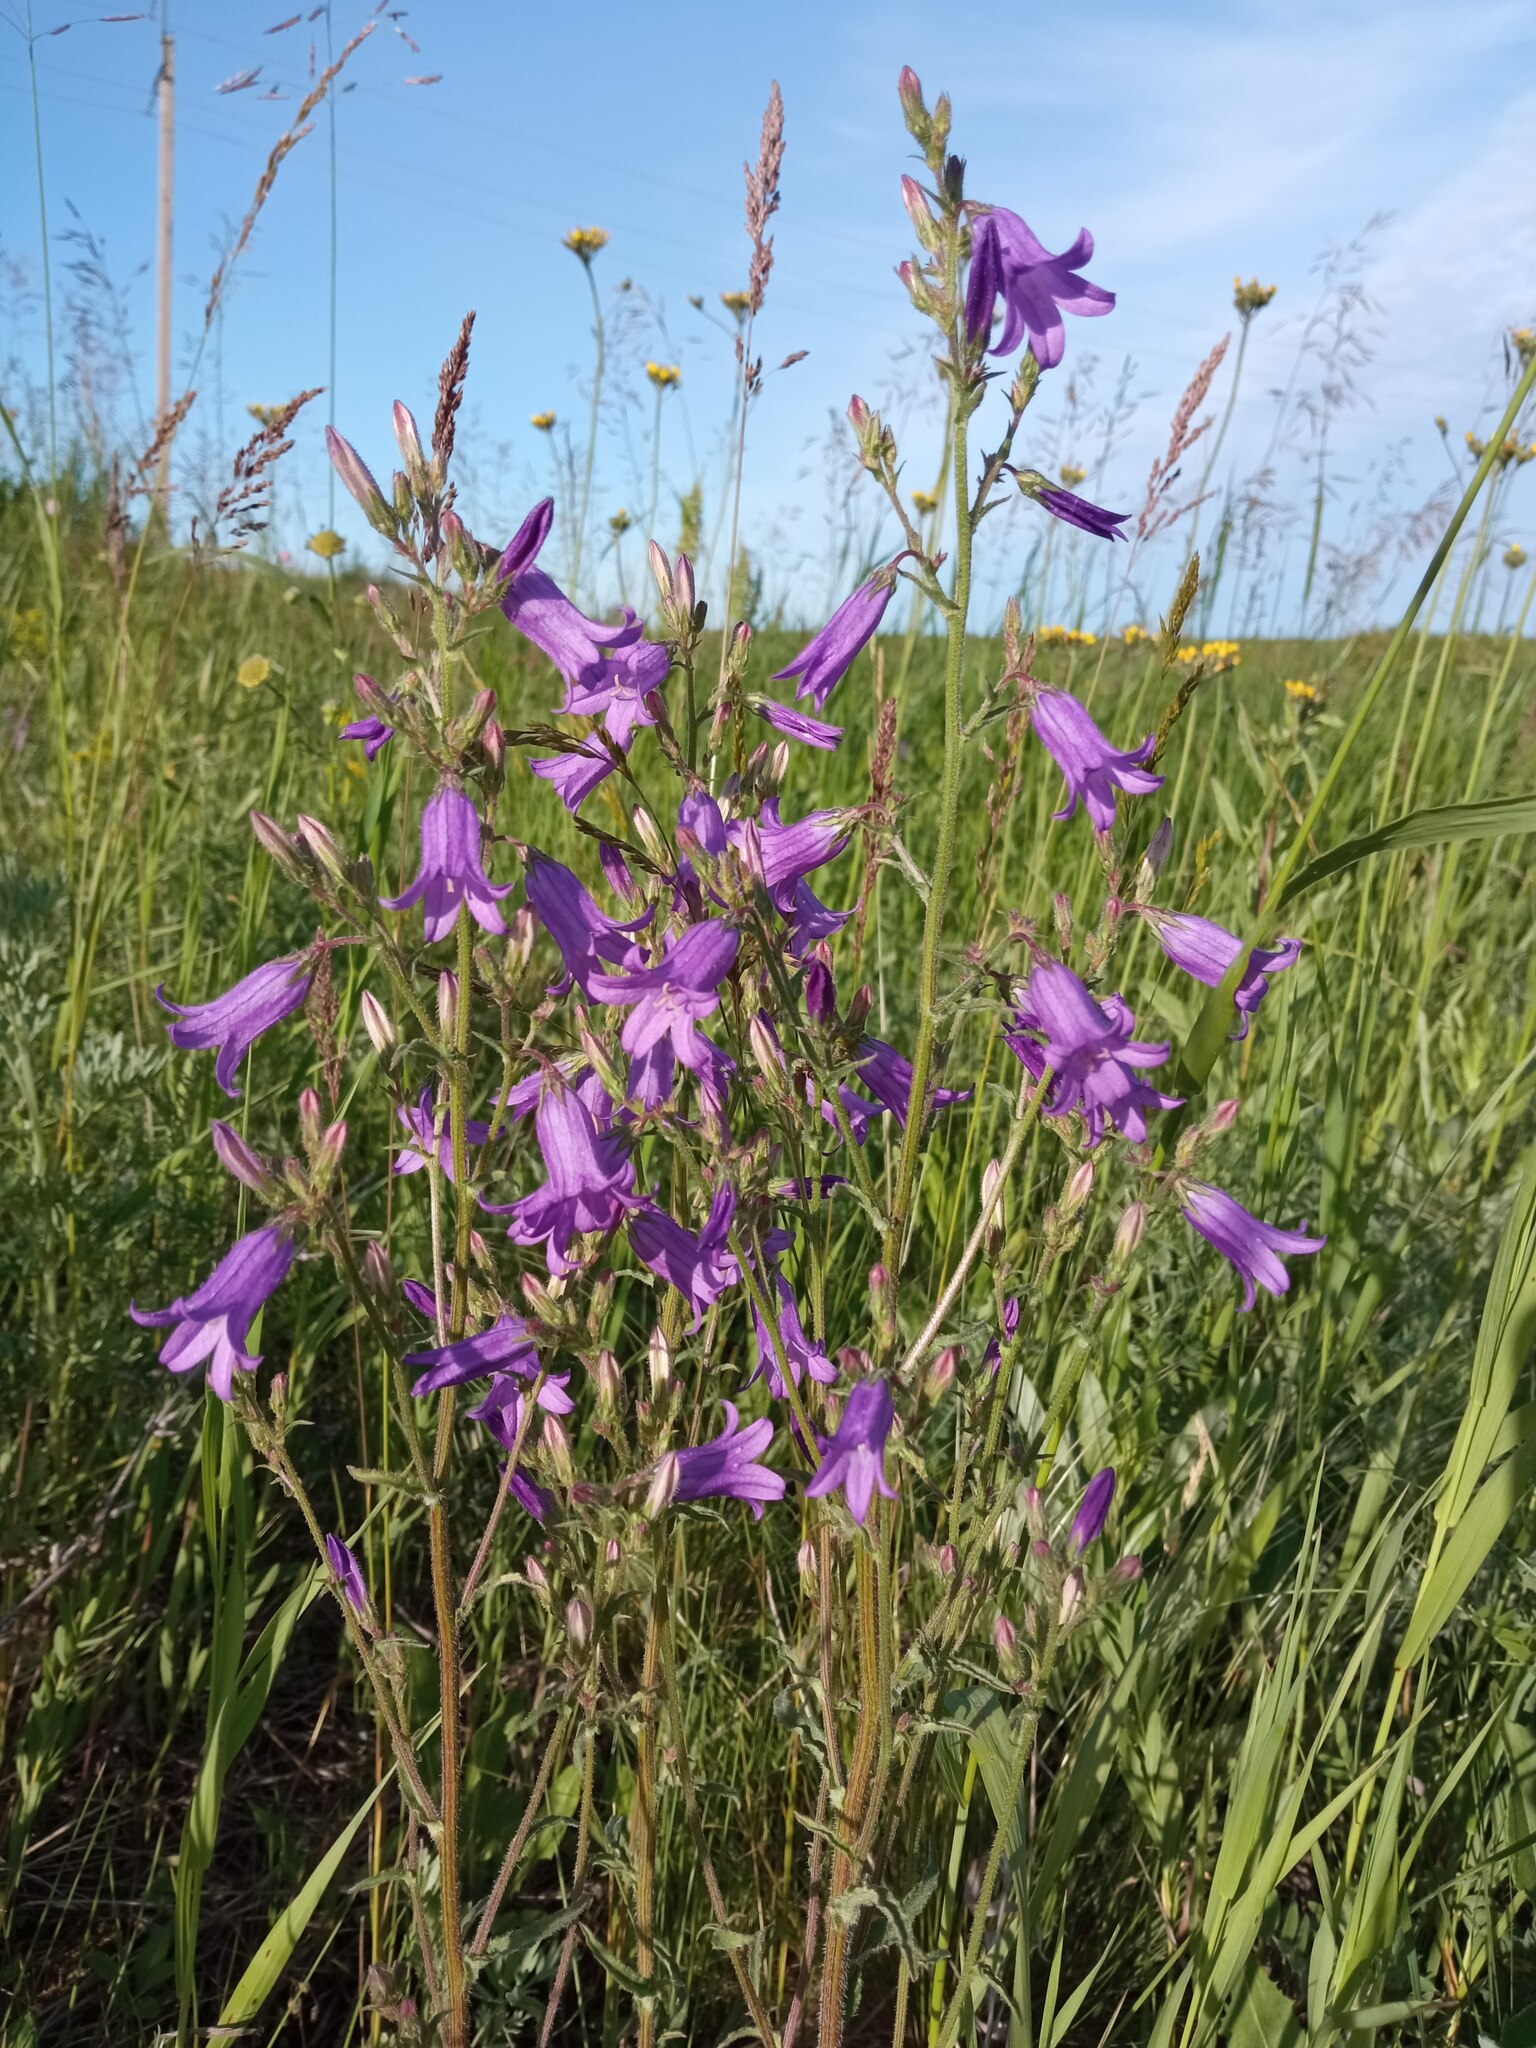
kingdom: Plantae
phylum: Tracheophyta
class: Magnoliopsida
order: Asterales
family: Campanulaceae
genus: Campanula
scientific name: Campanula sibirica
